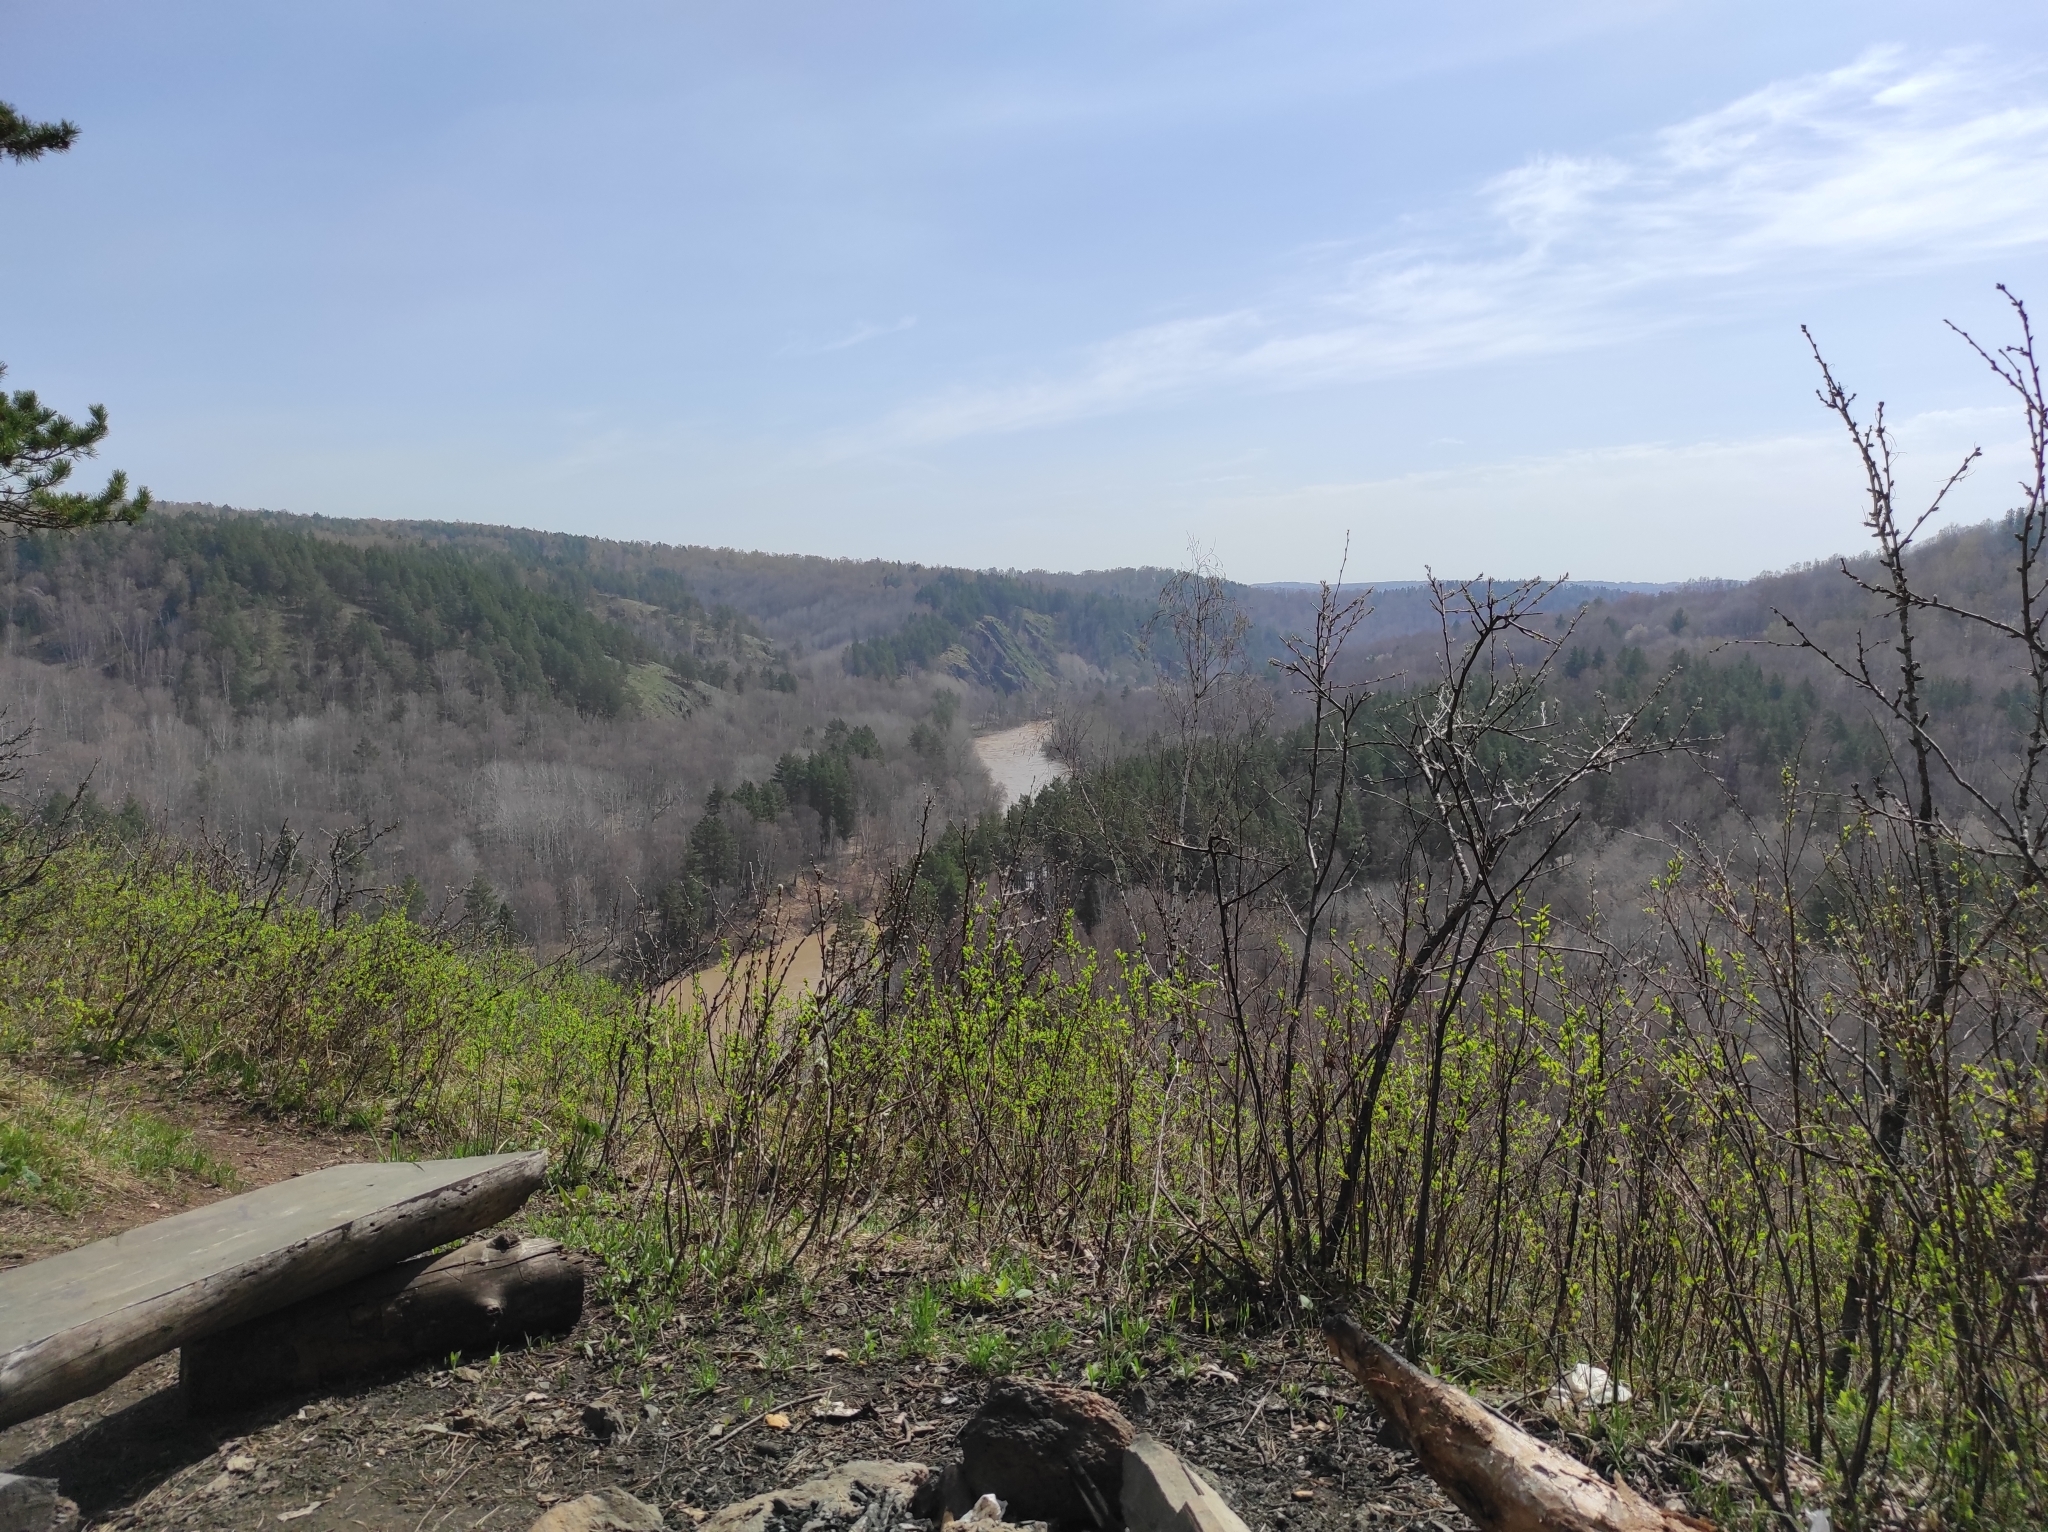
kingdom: Plantae
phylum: Tracheophyta
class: Pinopsida
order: Pinales
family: Pinaceae
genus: Pinus
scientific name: Pinus sylvestris
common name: Scots pine
